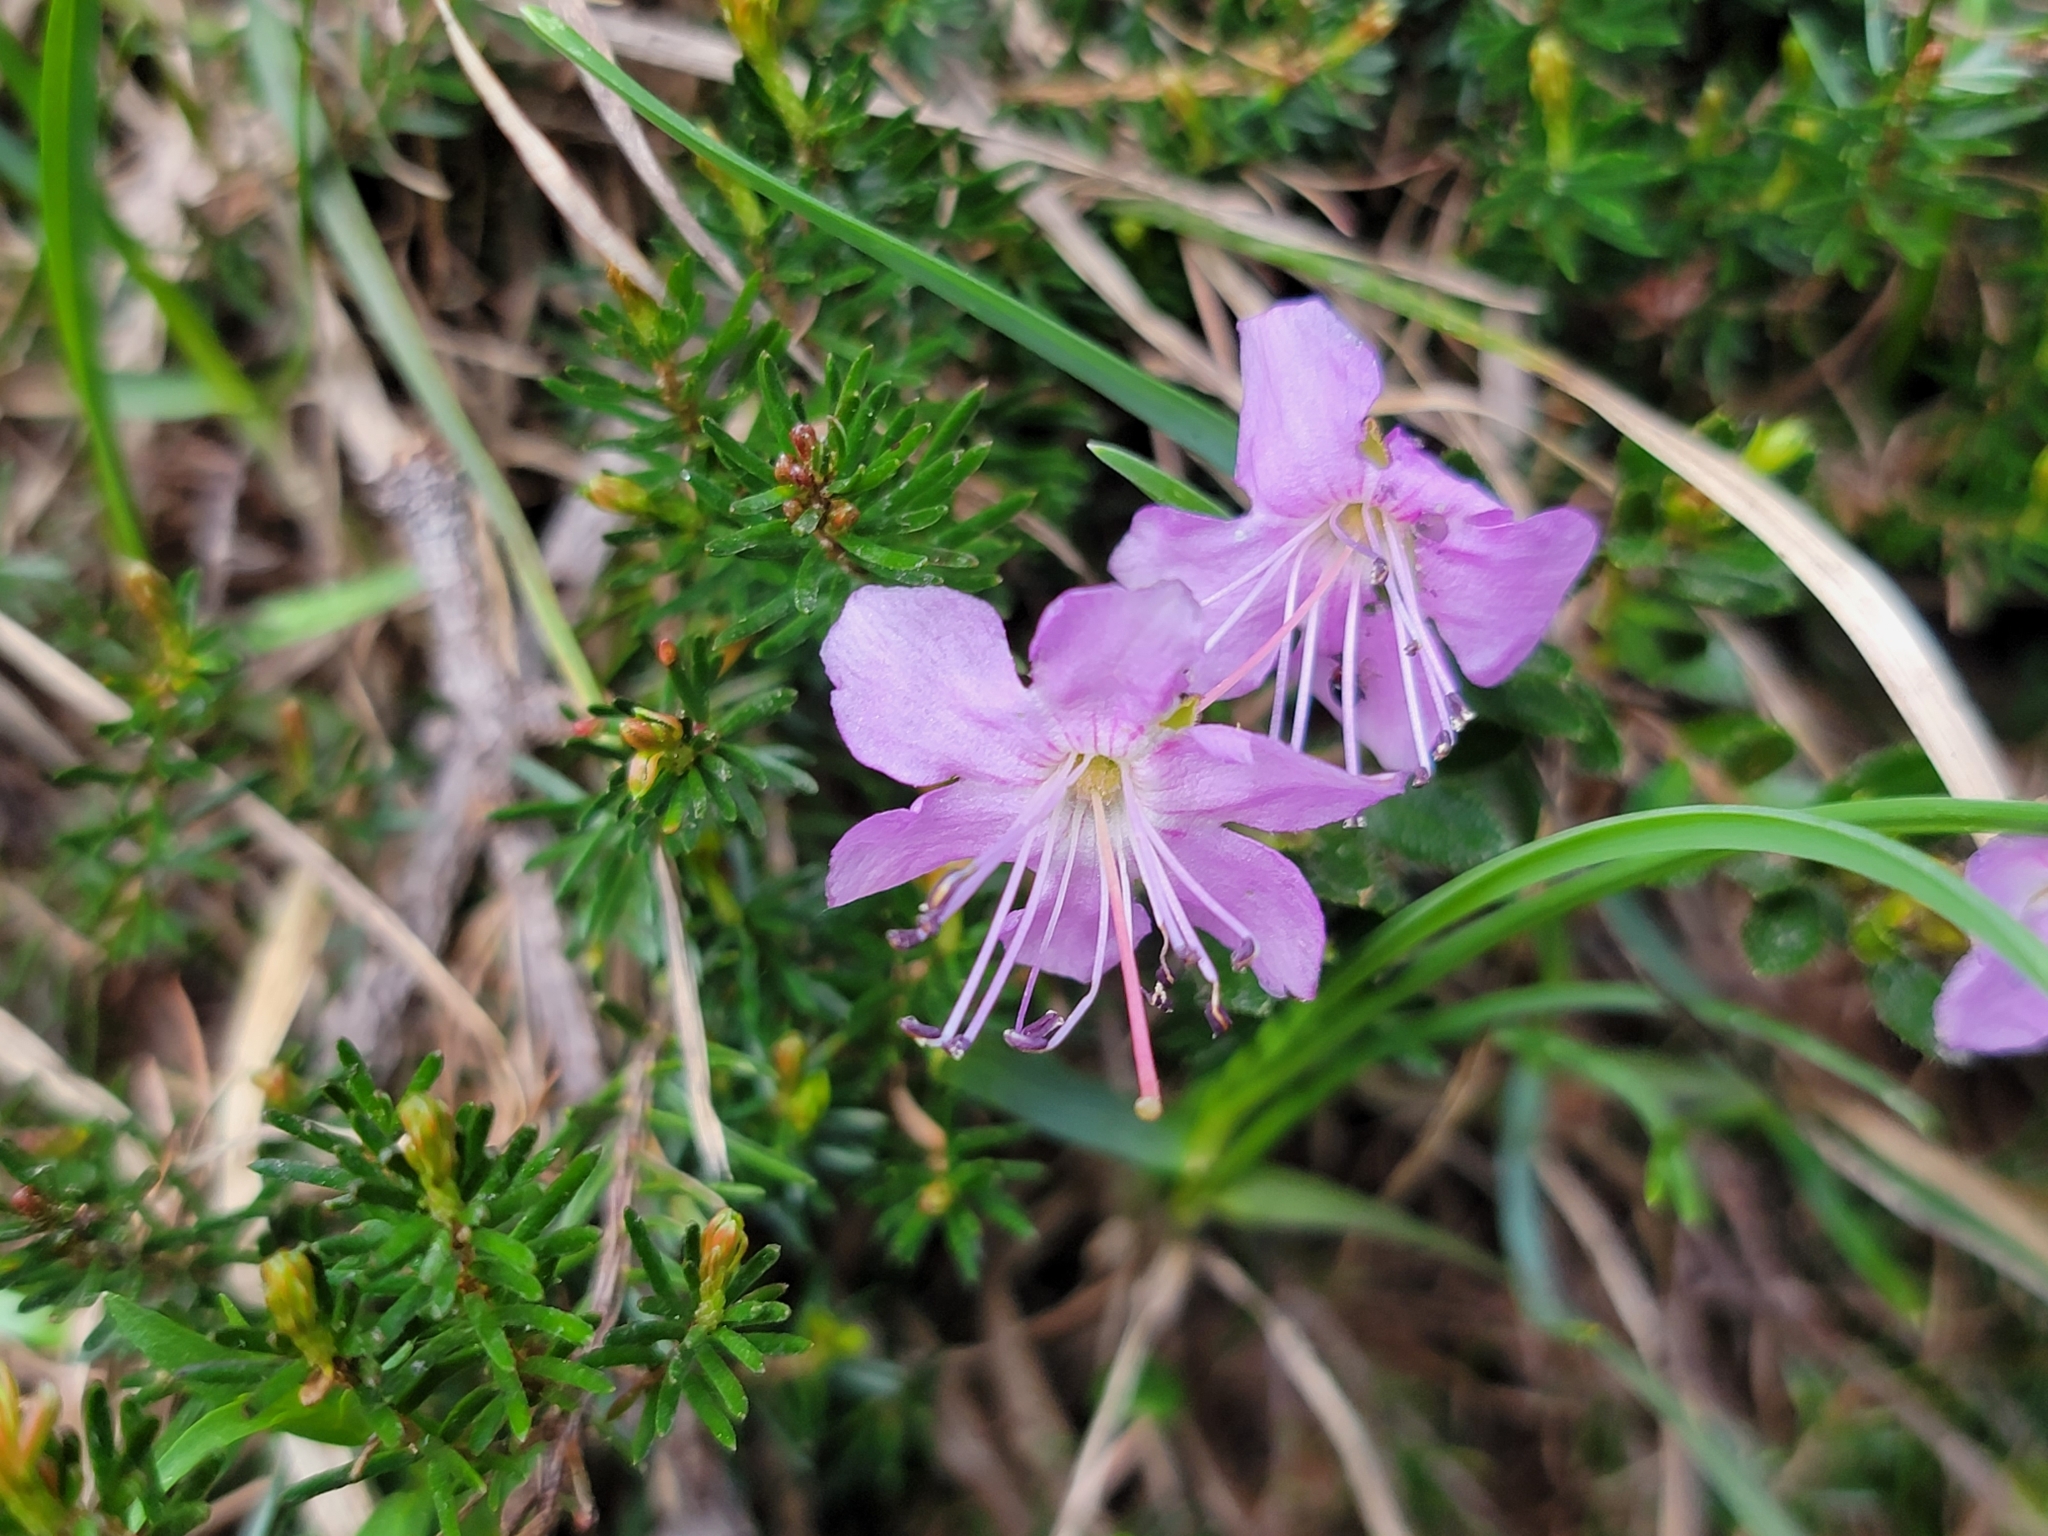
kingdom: Plantae
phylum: Tracheophyta
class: Magnoliopsida
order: Ericales
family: Ericaceae
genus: Rhodothamnus
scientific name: Rhodothamnus chamaecistus
